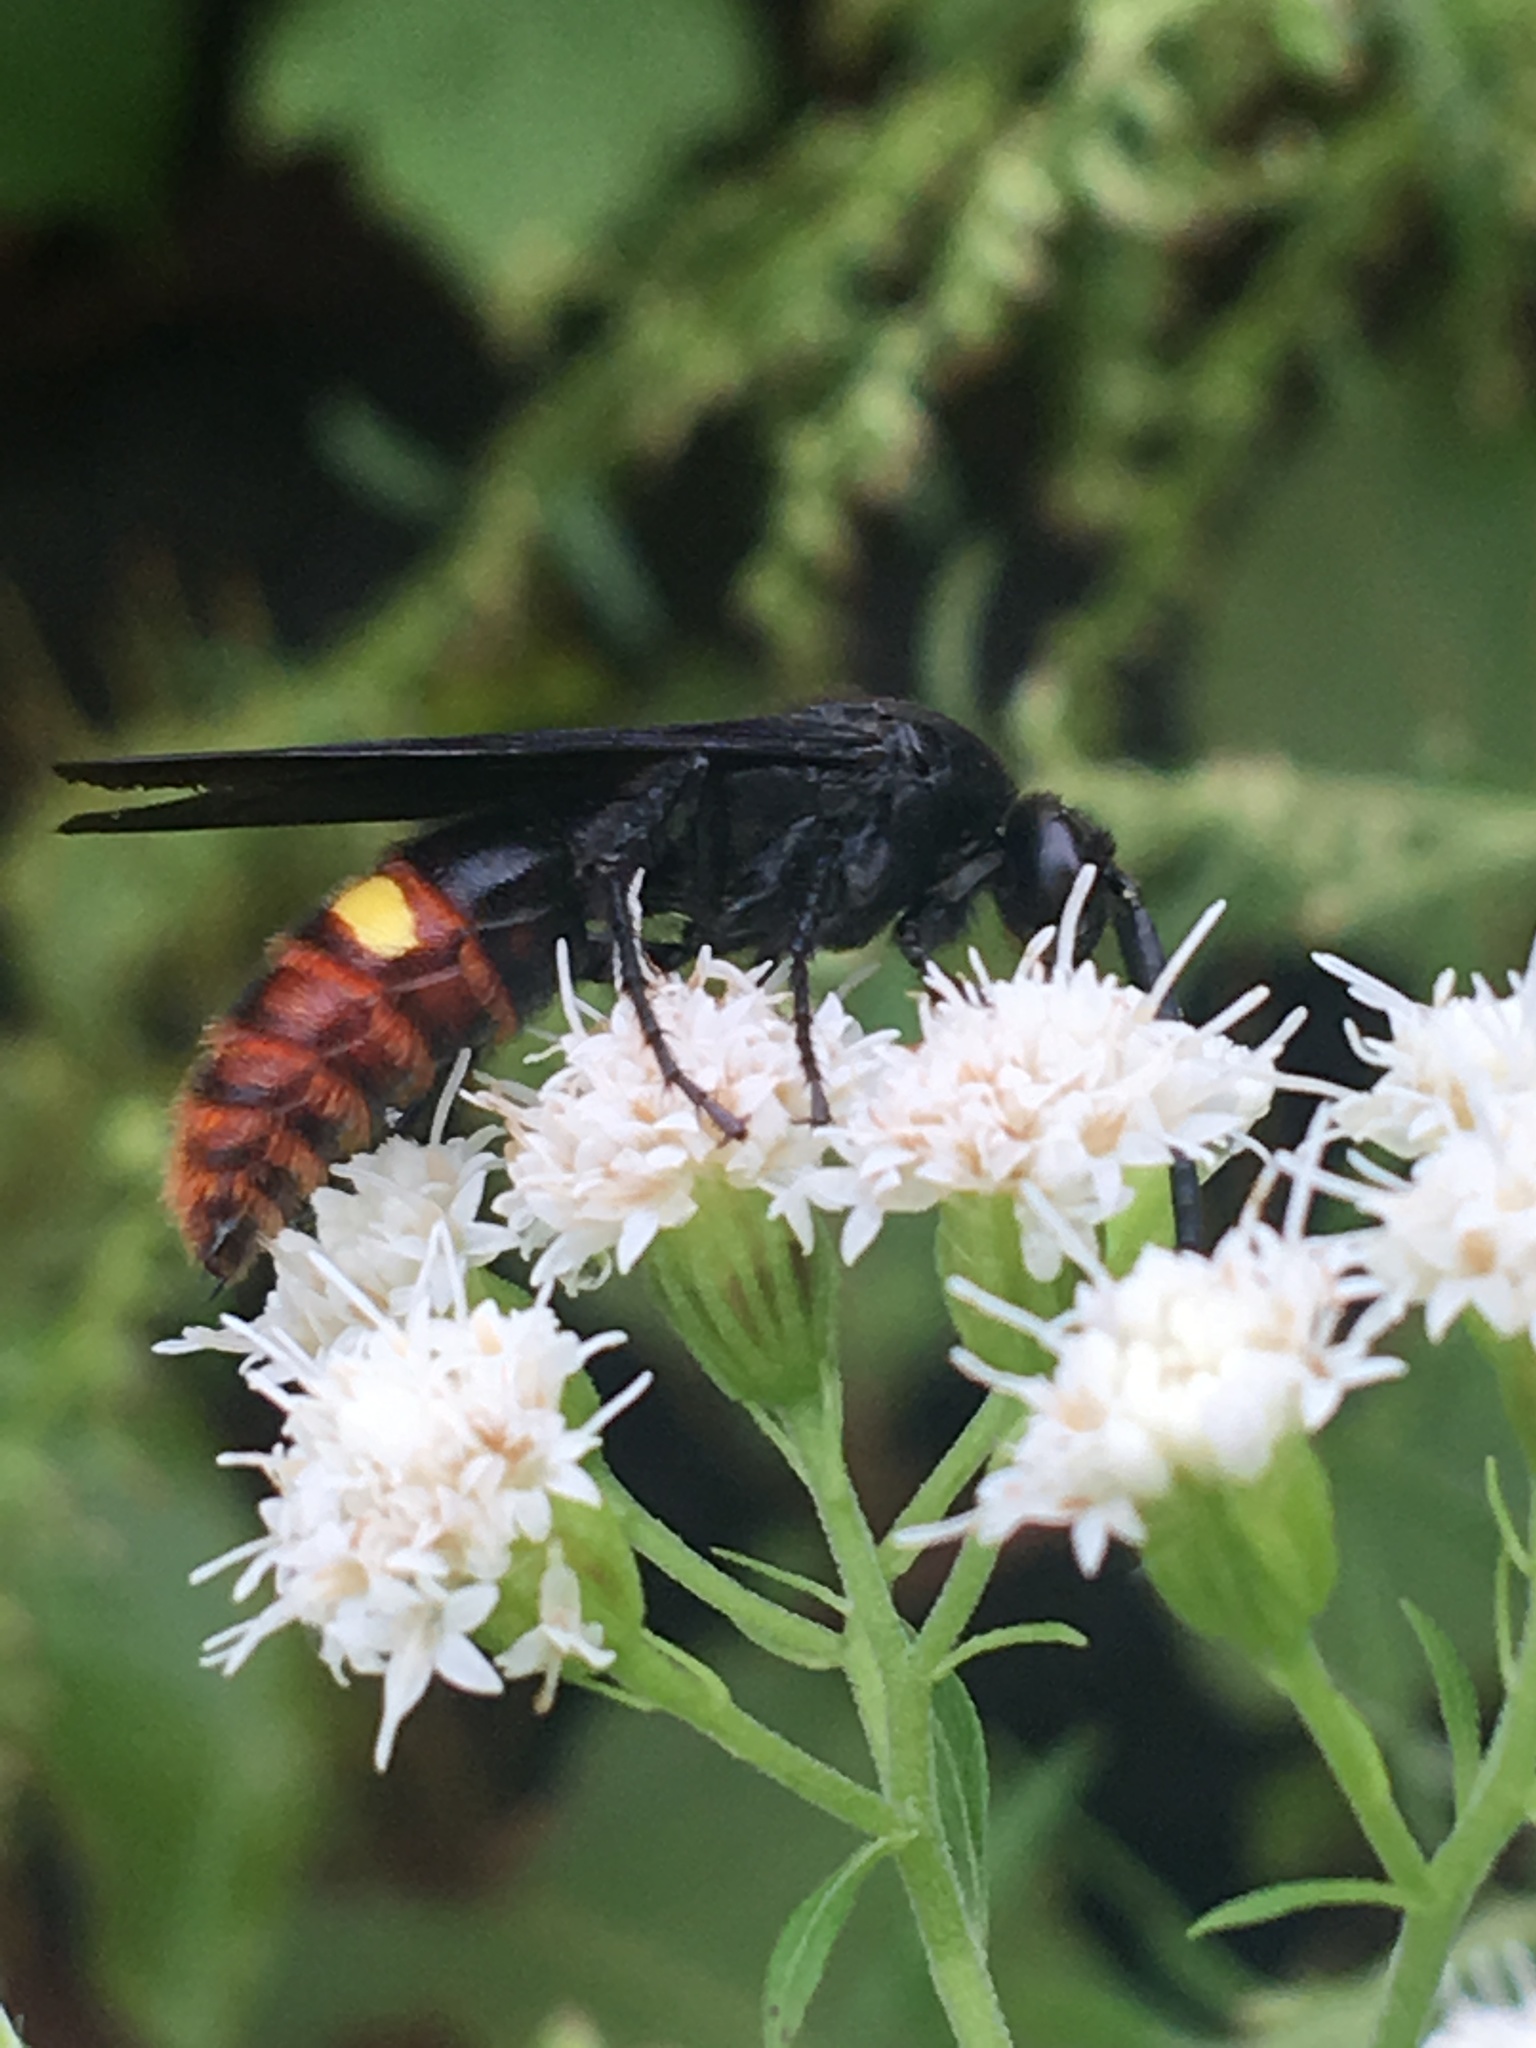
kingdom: Animalia
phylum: Arthropoda
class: Insecta
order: Hymenoptera
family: Scoliidae
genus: Scolia
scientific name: Scolia dubia
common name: Blue-winged scoliid wasp
